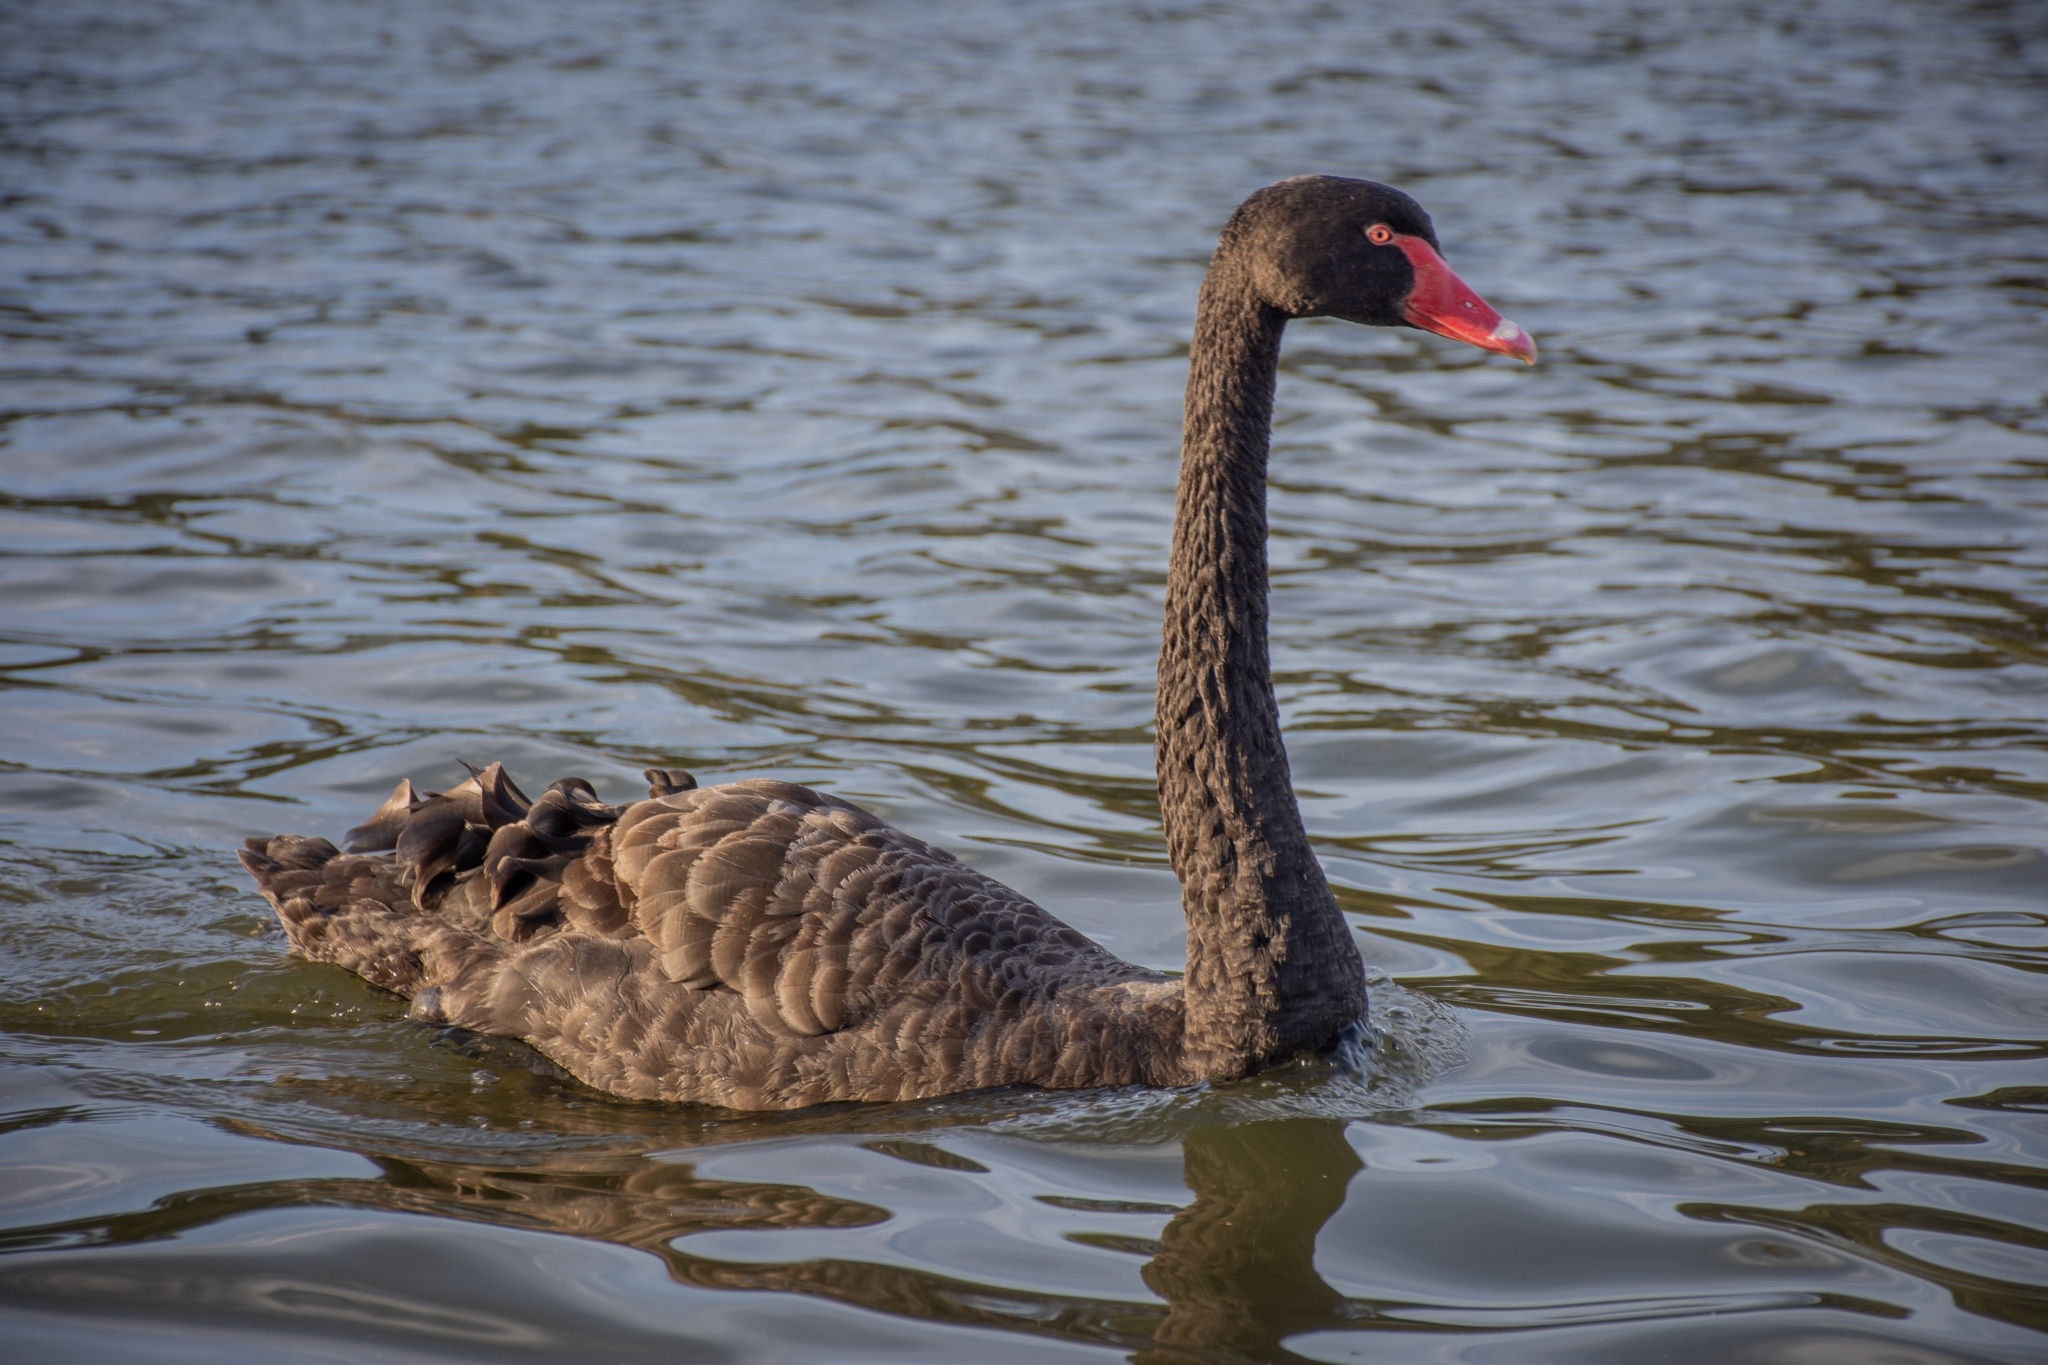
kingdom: Animalia
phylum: Chordata
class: Aves
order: Anseriformes
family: Anatidae
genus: Cygnus
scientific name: Cygnus atratus
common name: Black swan
